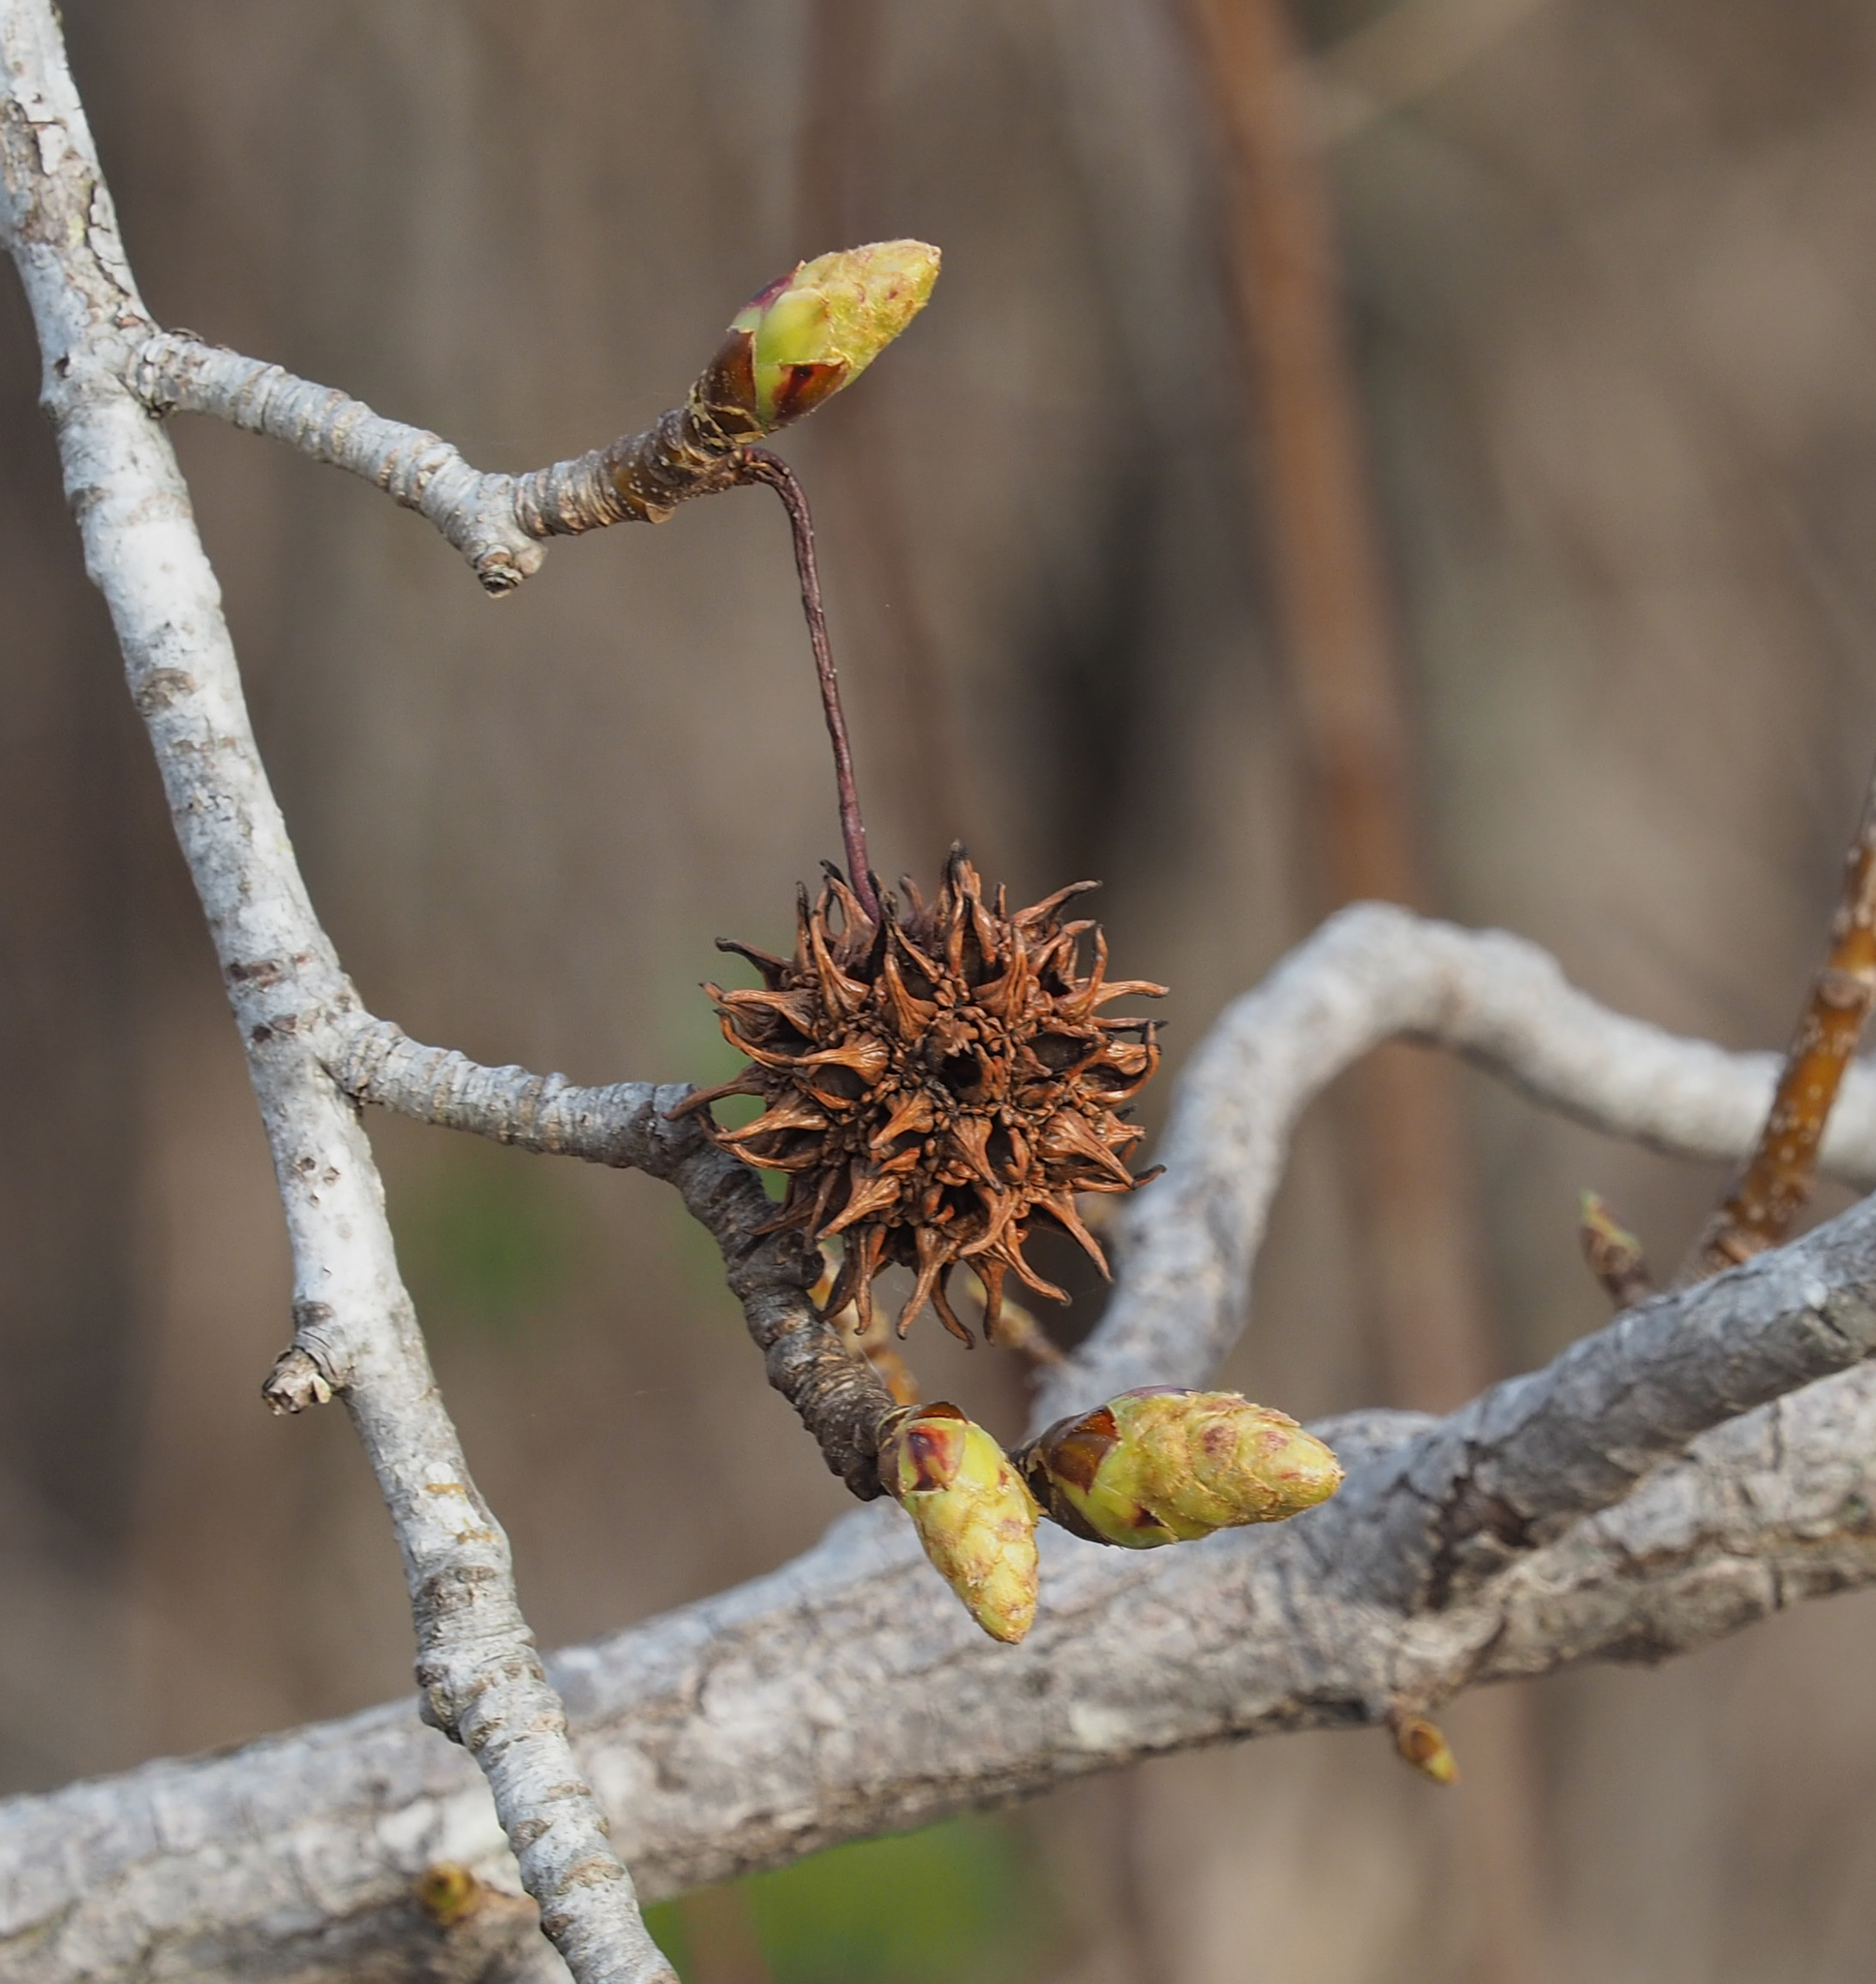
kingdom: Plantae
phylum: Tracheophyta
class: Magnoliopsida
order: Saxifragales
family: Altingiaceae
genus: Liquidambar
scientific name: Liquidambar styraciflua
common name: Sweet gum
